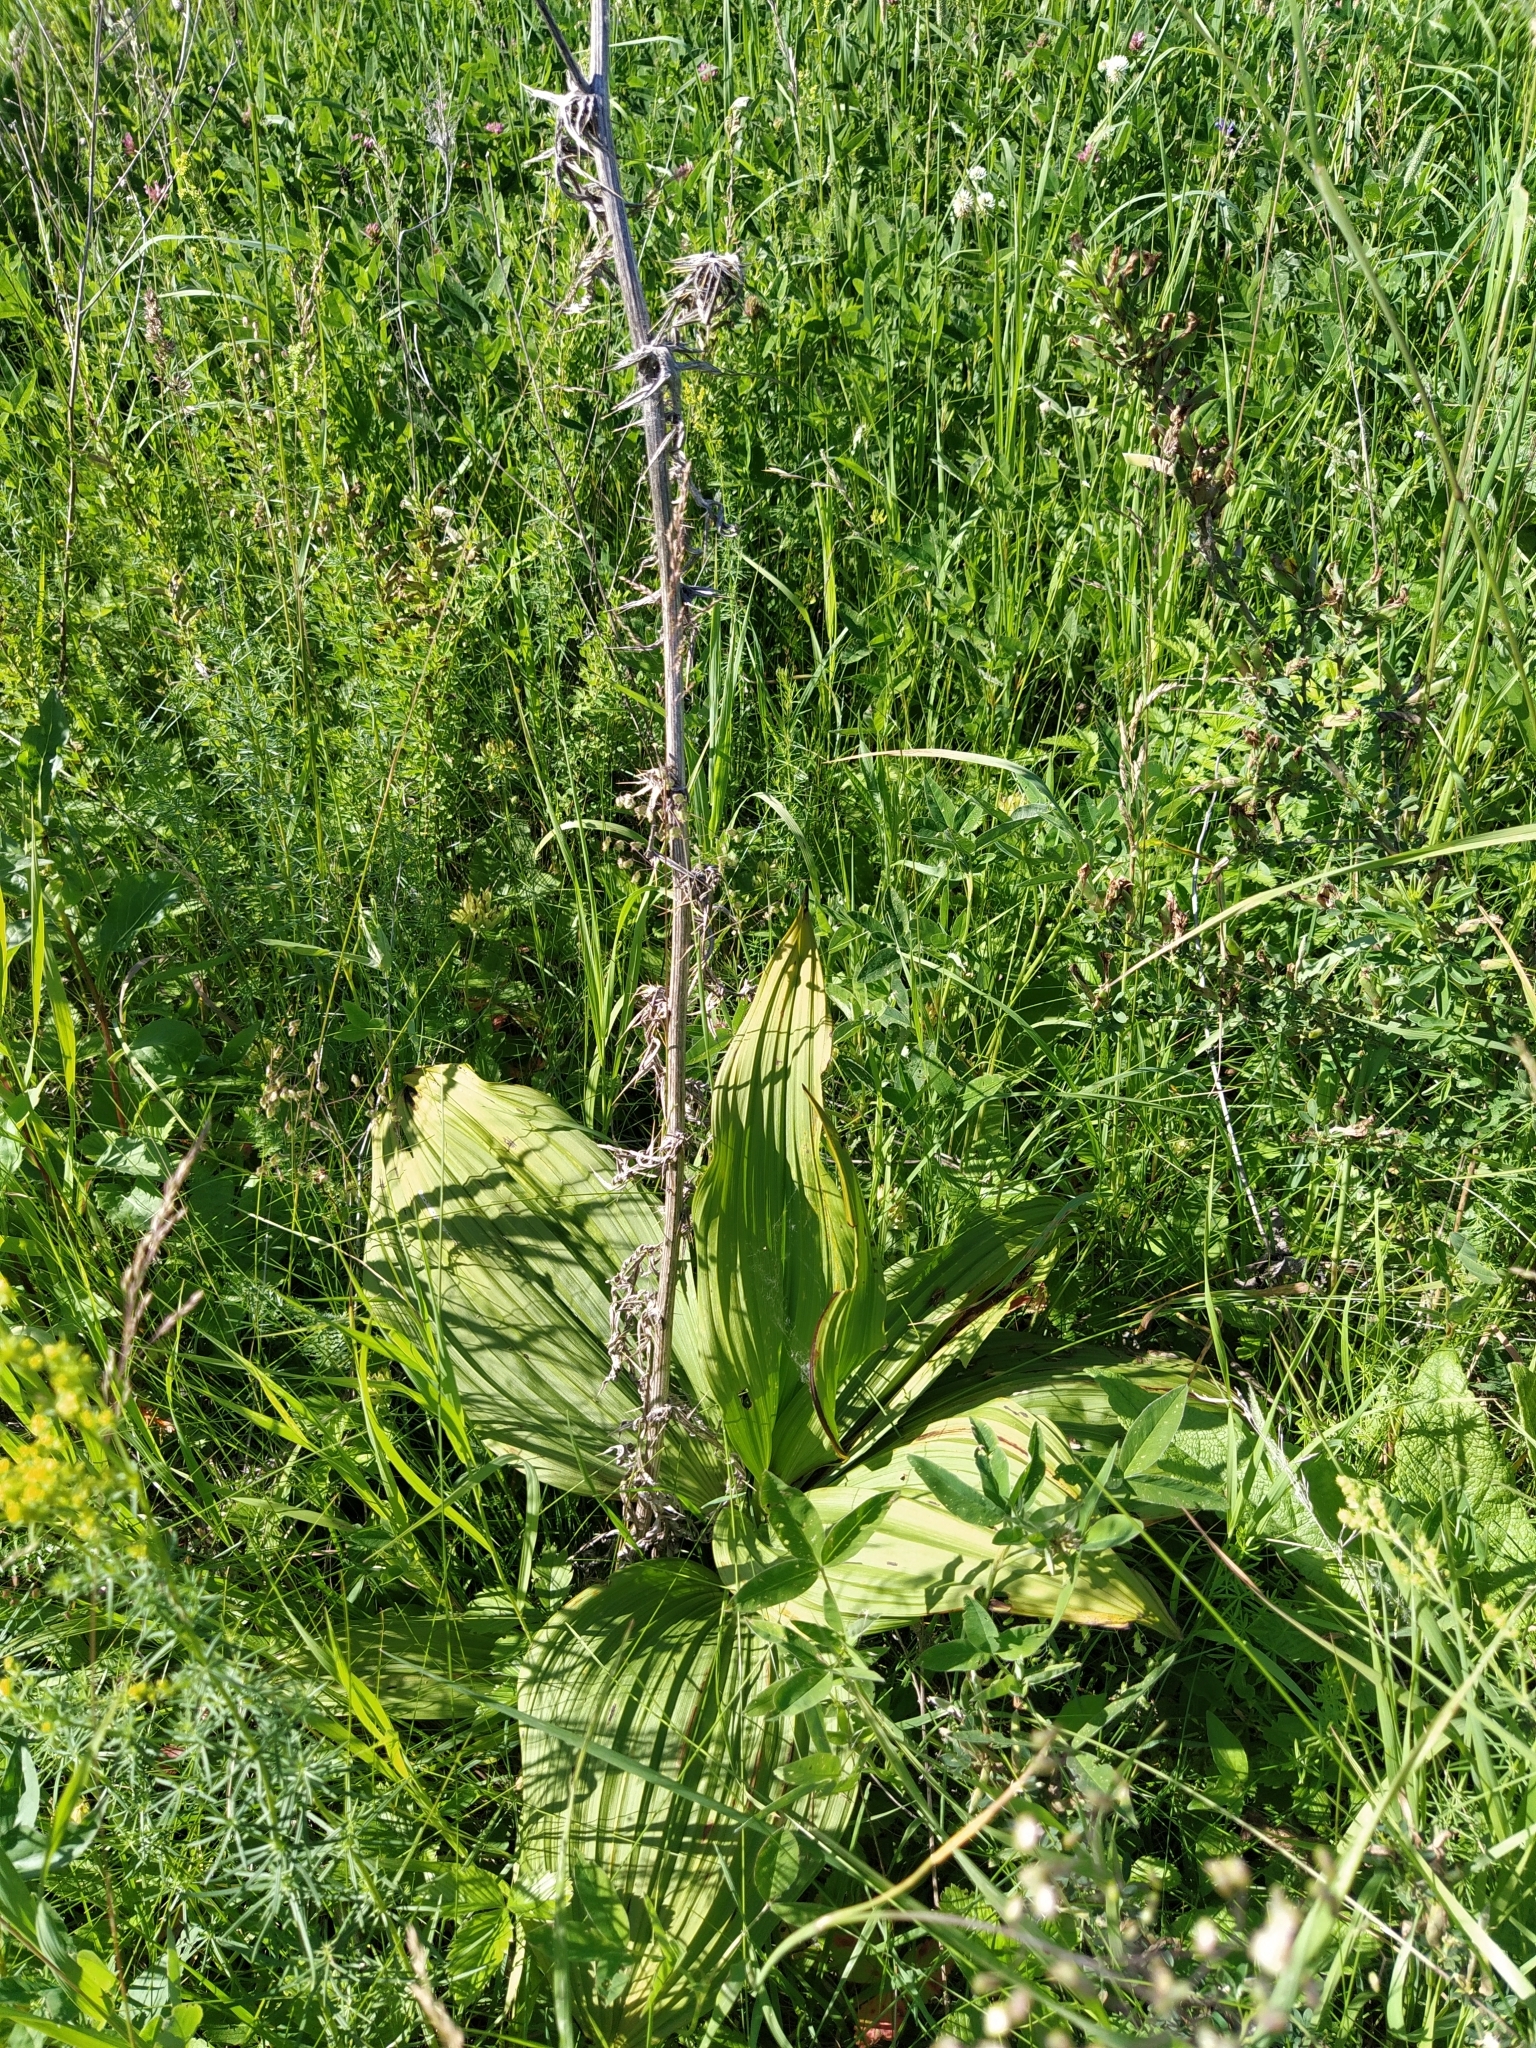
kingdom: Plantae
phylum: Tracheophyta
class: Liliopsida
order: Liliales
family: Melanthiaceae
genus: Veratrum
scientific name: Veratrum lobelianum
